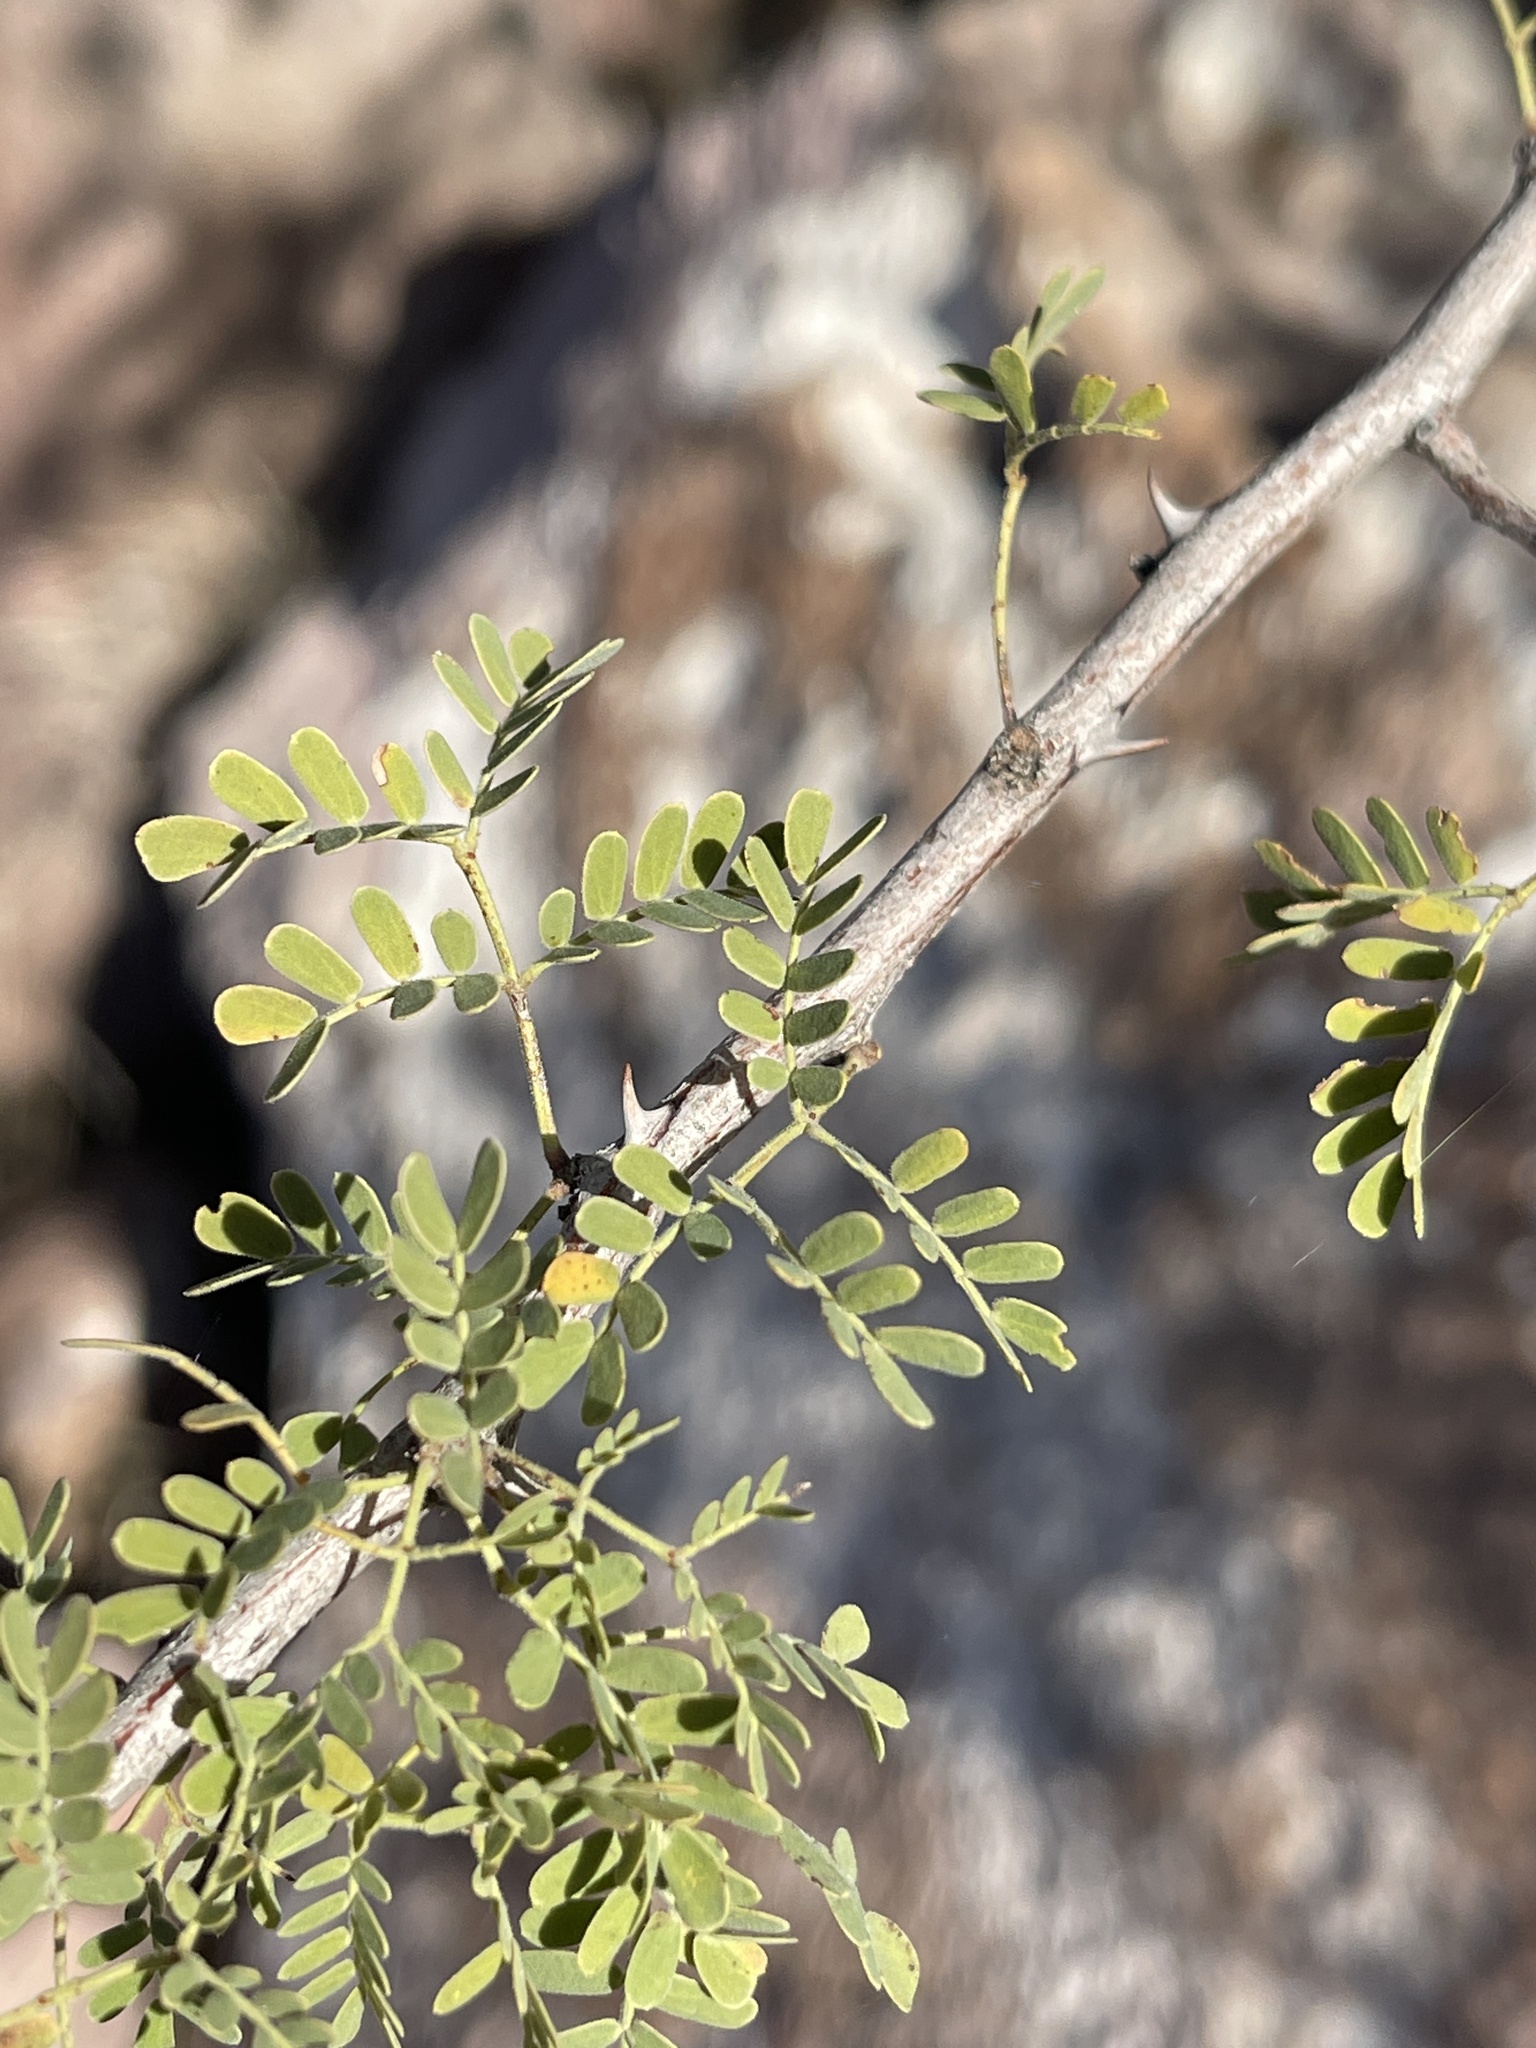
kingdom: Plantae
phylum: Tracheophyta
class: Magnoliopsida
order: Fabales
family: Fabaceae
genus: Senegalia
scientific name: Senegalia greggii
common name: Texas-mimosa
